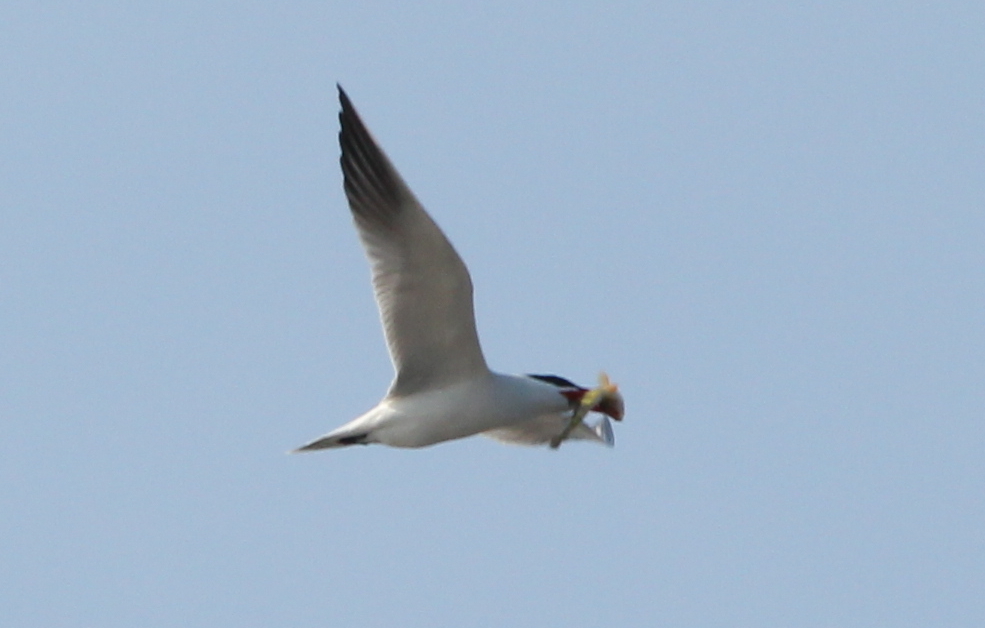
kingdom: Animalia
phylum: Chordata
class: Aves
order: Charadriiformes
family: Laridae
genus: Hydroprogne
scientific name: Hydroprogne caspia
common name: Caspian tern
